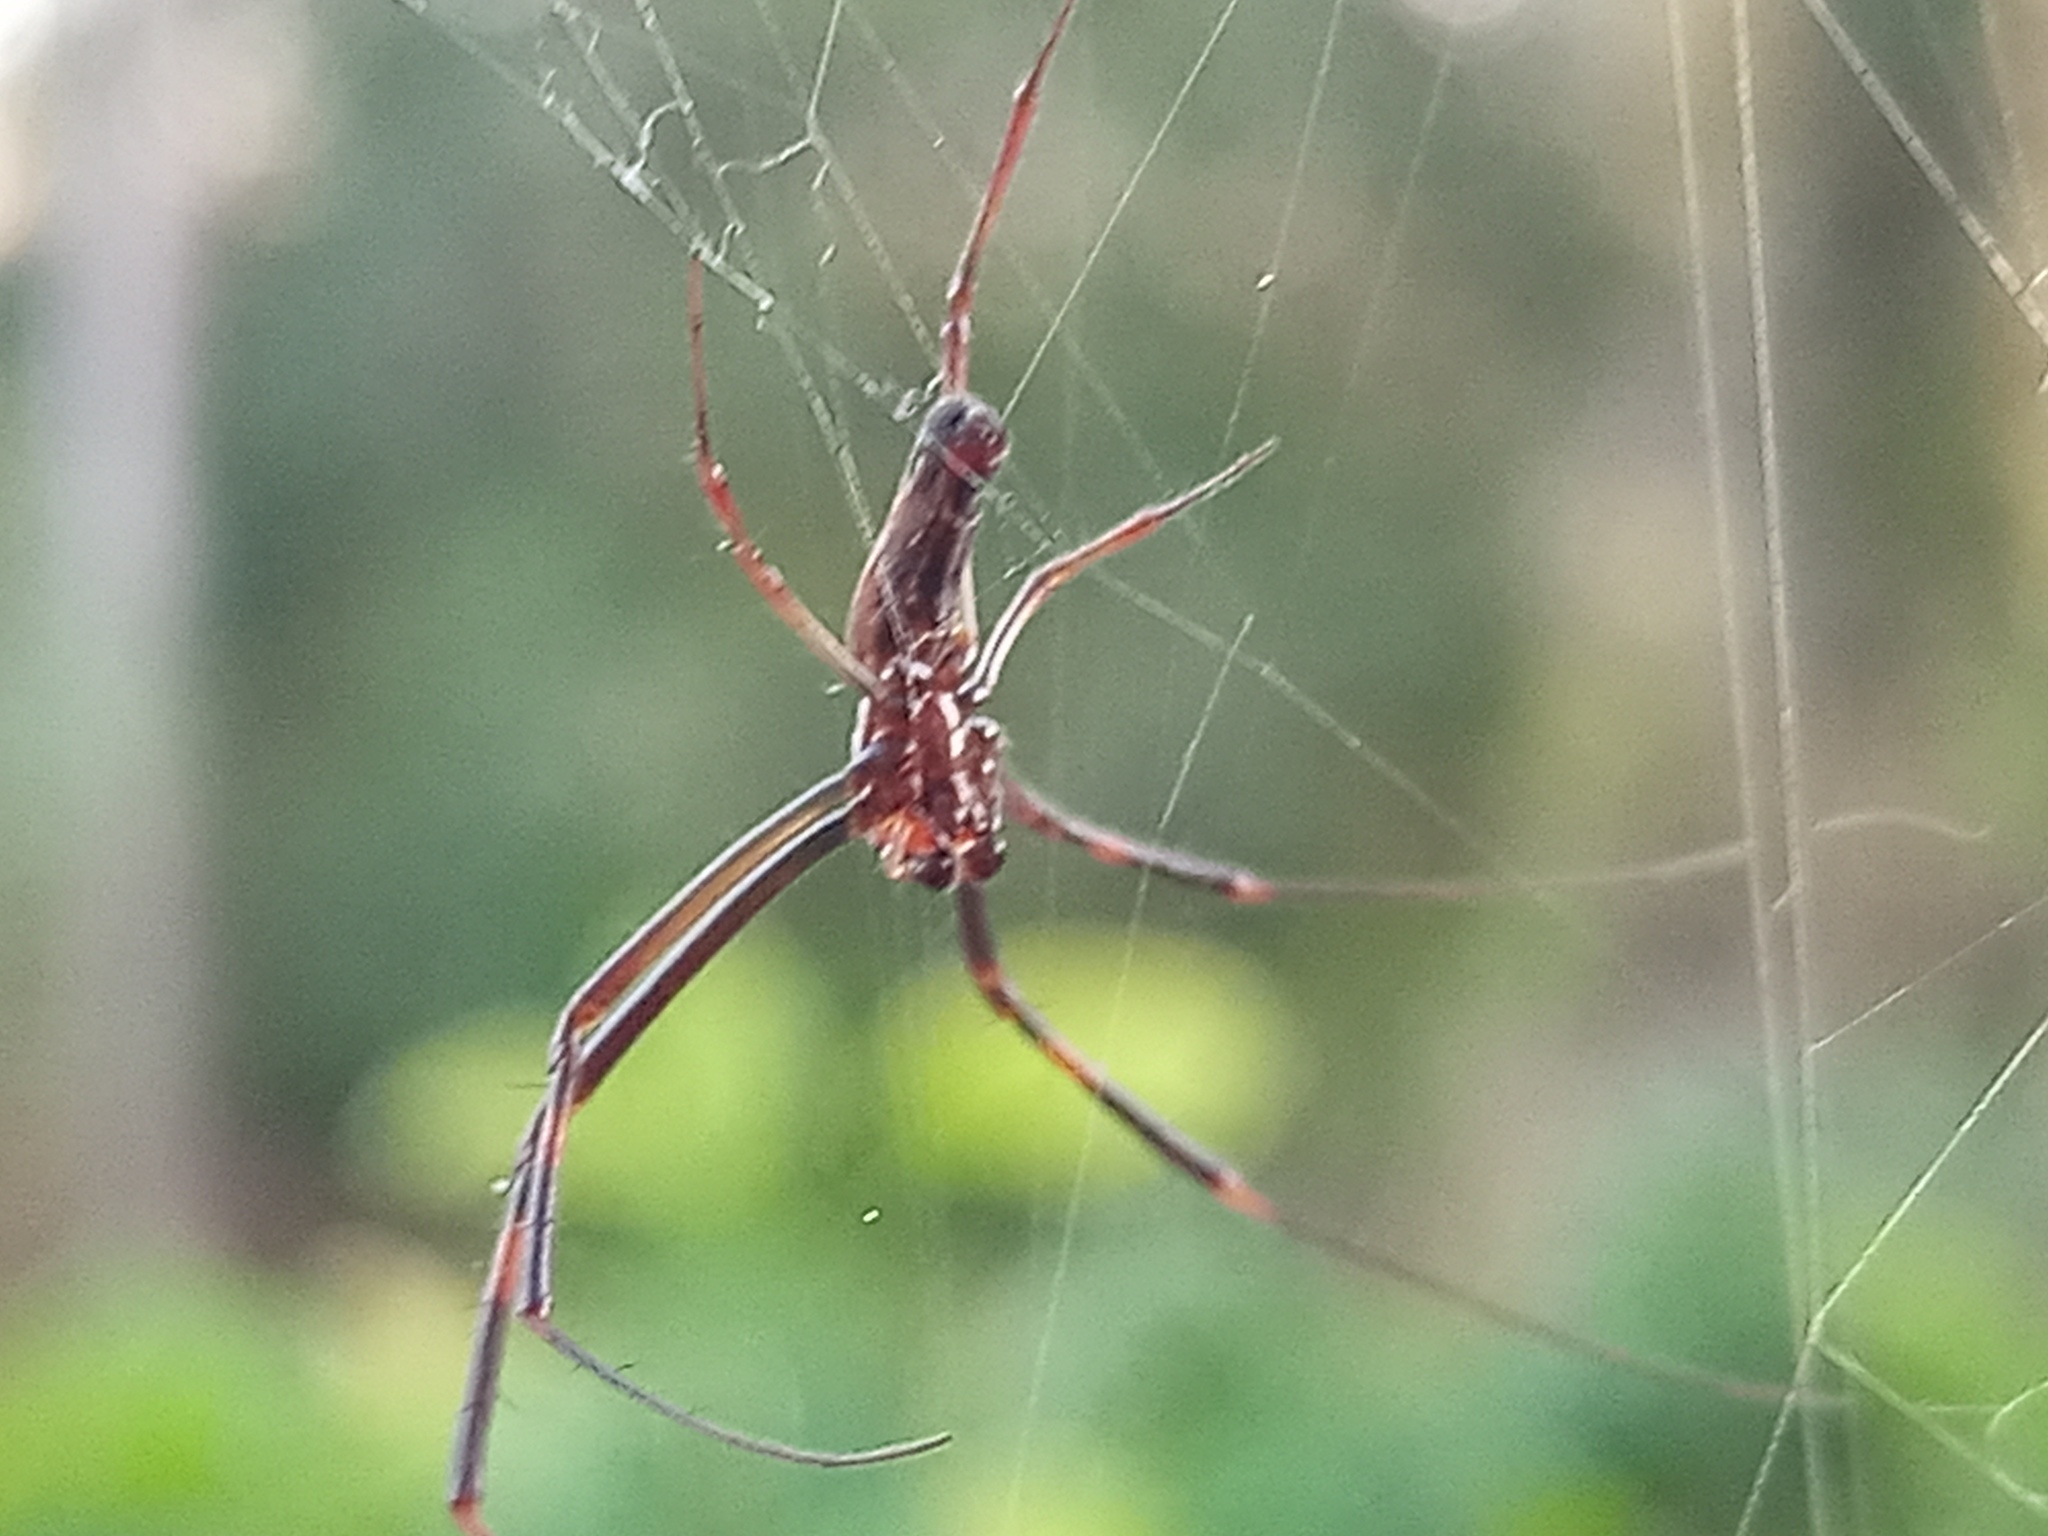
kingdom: Animalia
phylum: Arthropoda
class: Arachnida
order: Araneae
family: Araneidae
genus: Trichonephila
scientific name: Trichonephila clavipes
